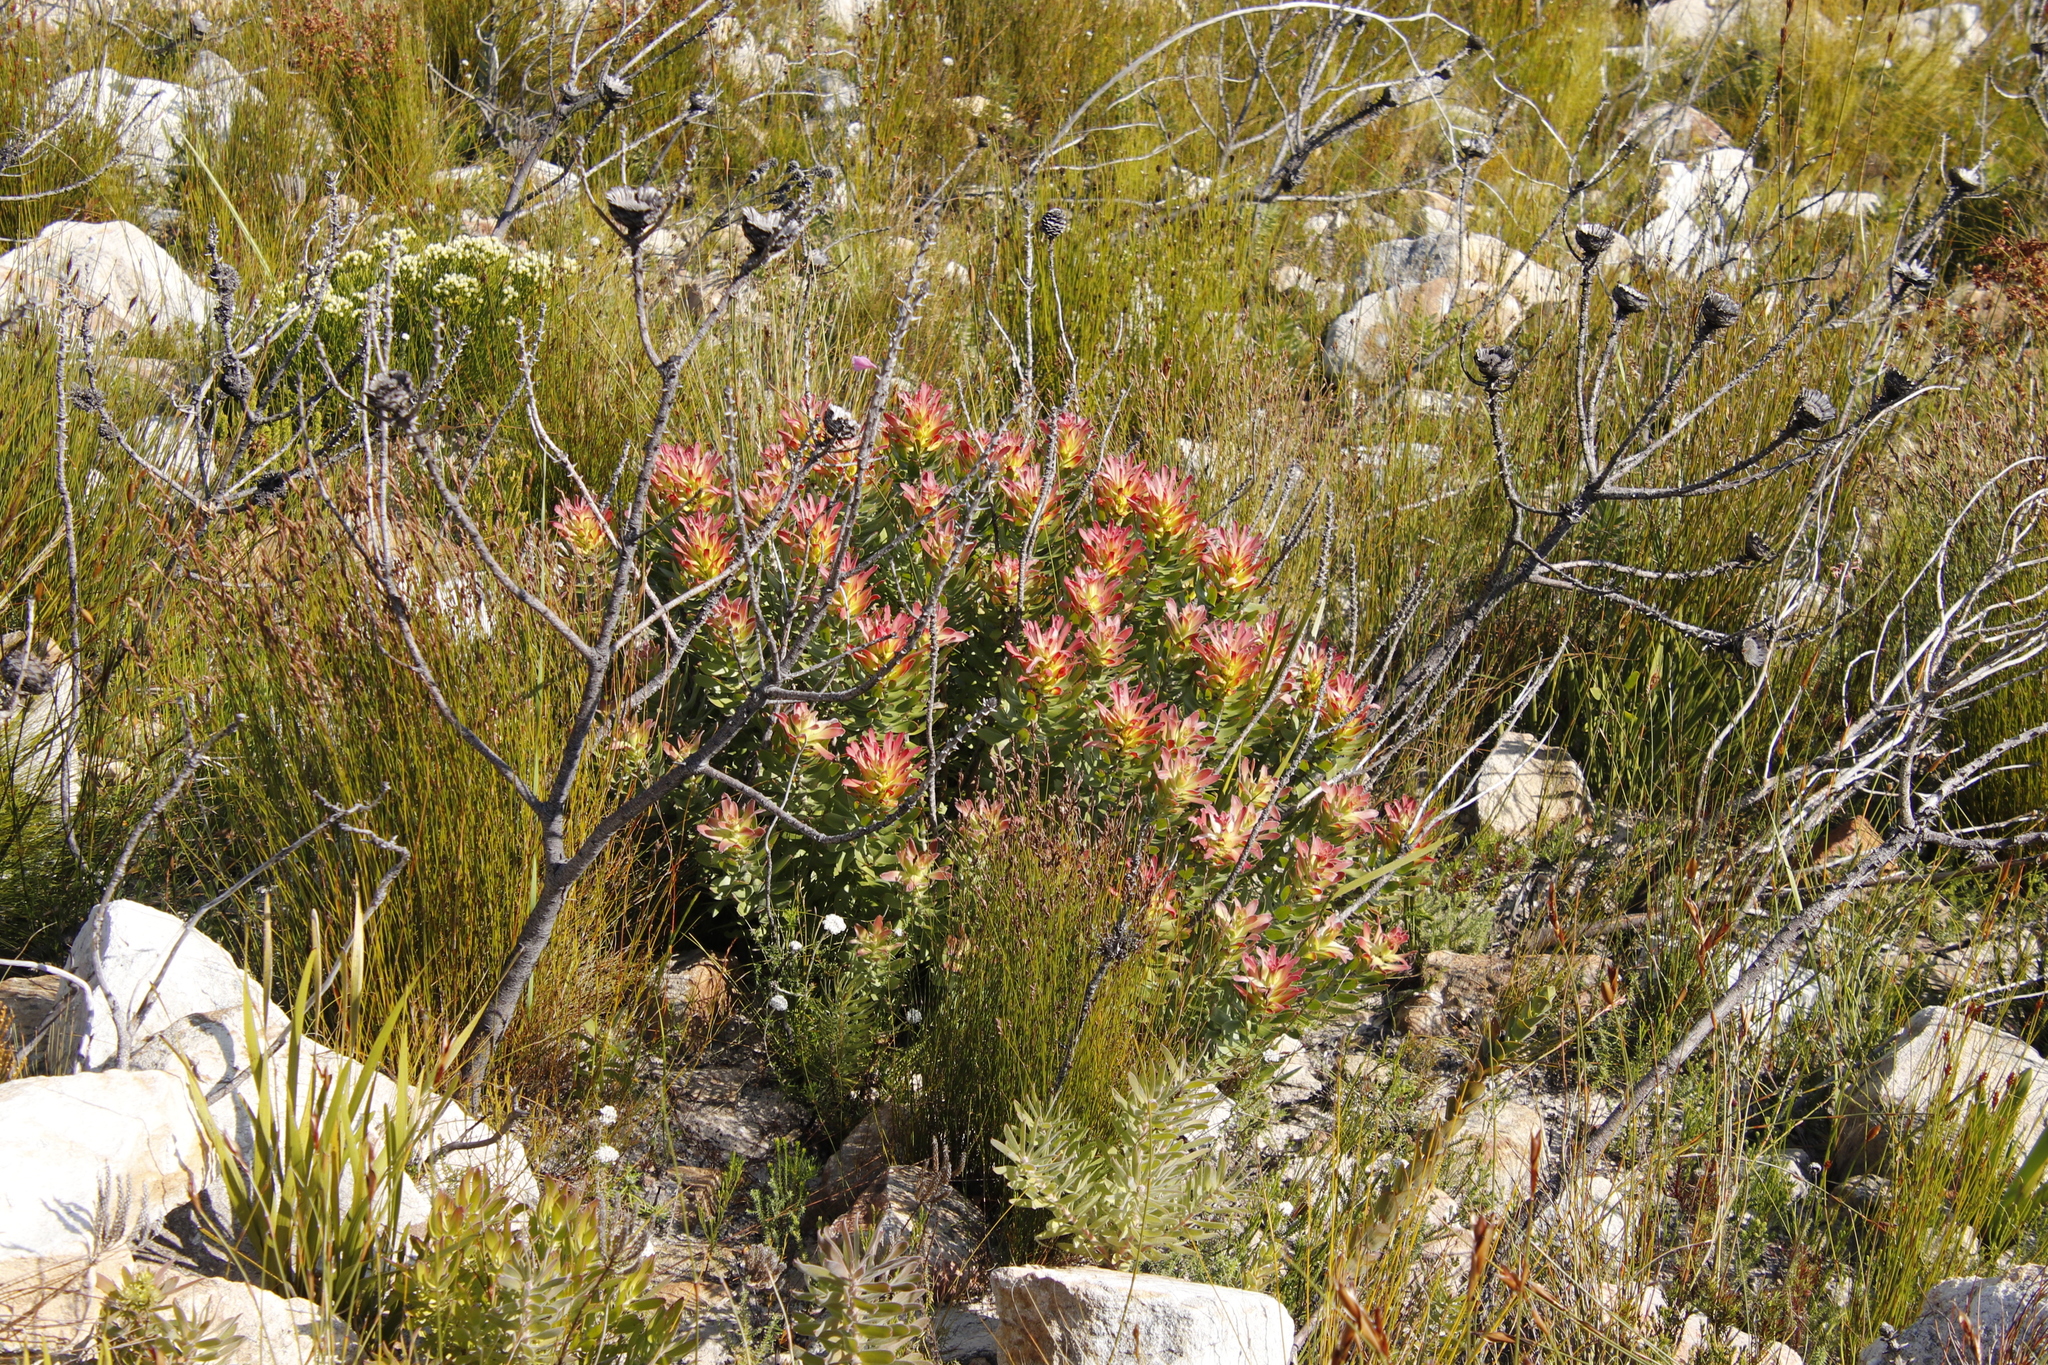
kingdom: Plantae
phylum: Tracheophyta
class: Magnoliopsida
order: Proteales
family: Proteaceae
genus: Mimetes
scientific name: Mimetes cucullatus
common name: Common pagoda
